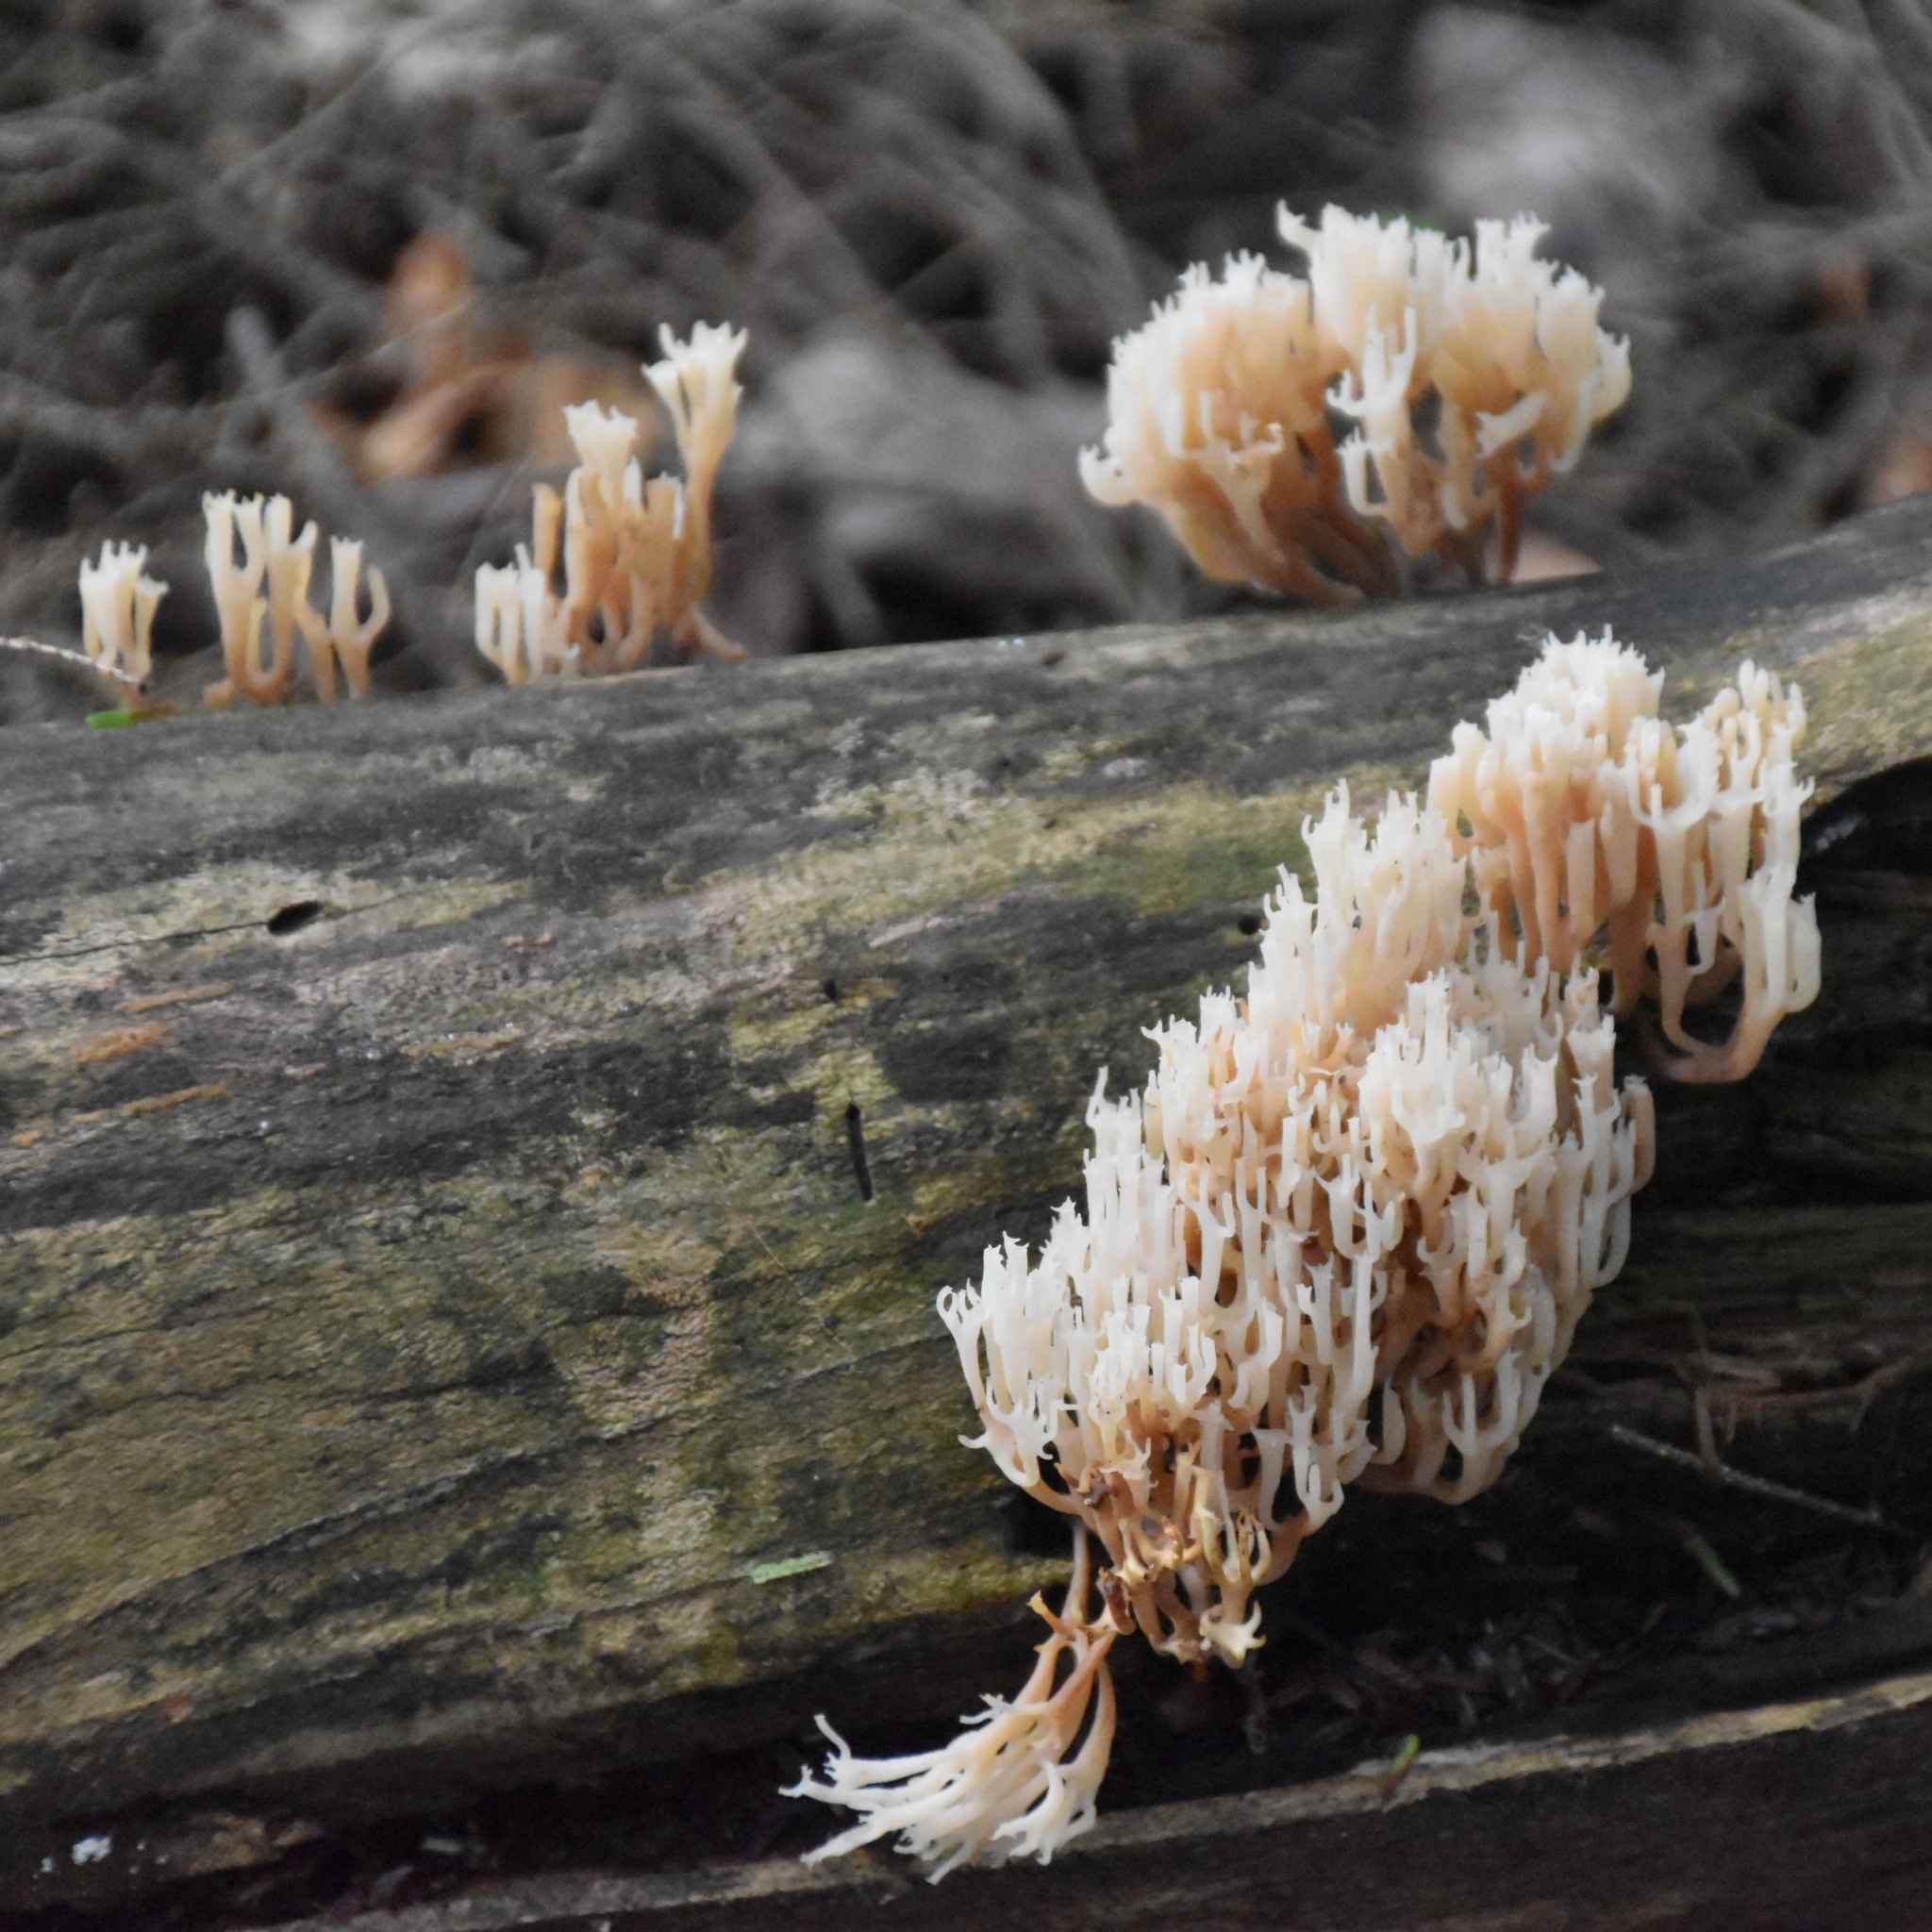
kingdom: Fungi
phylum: Basidiomycota
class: Agaricomycetes
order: Russulales
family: Auriscalpiaceae
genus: Artomyces
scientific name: Artomyces pyxidatus
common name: Crown-tipped coral fungus
